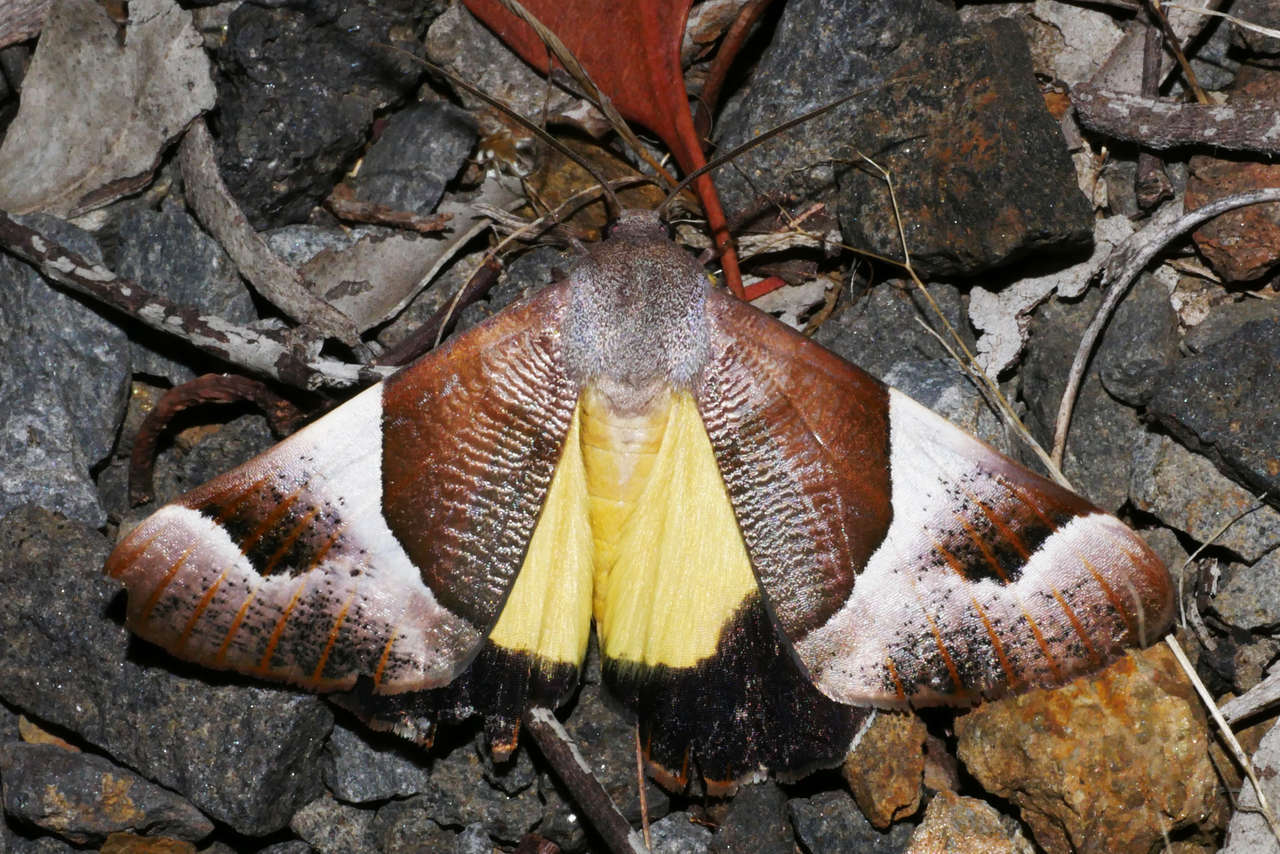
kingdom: Animalia
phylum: Arthropoda
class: Insecta
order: Lepidoptera
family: Geometridae
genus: Niceteria
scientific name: Niceteria macrocosma
